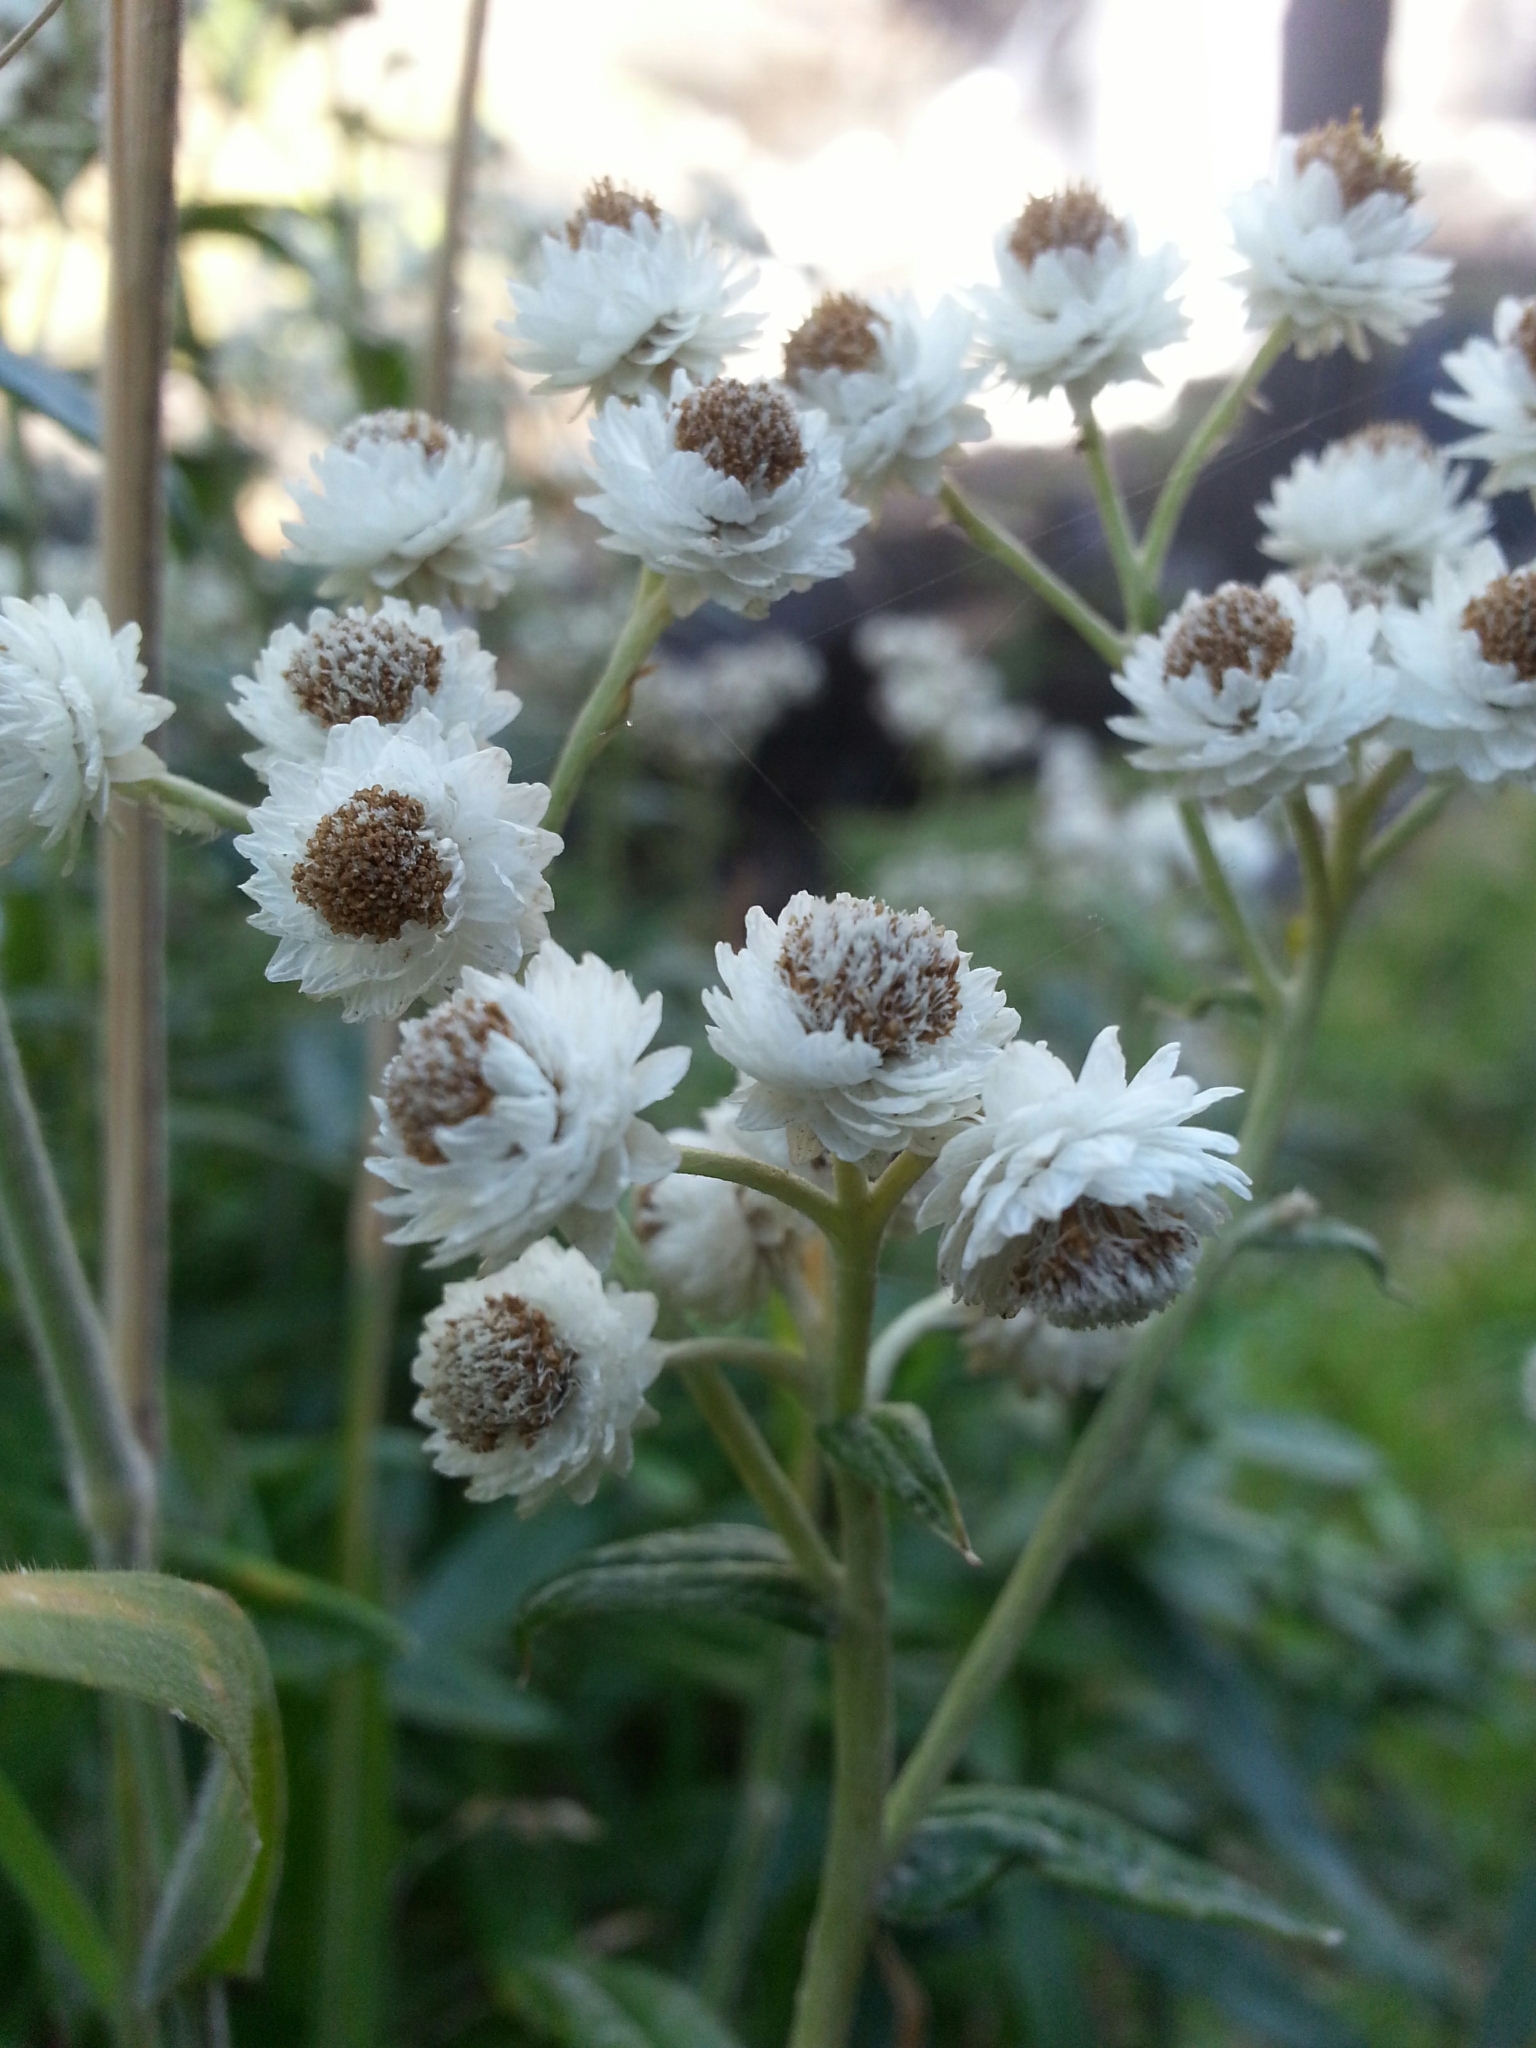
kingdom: Plantae
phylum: Tracheophyta
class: Magnoliopsida
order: Asterales
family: Asteraceae
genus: Anaphalis
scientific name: Anaphalis margaritacea
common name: Pearly everlasting
